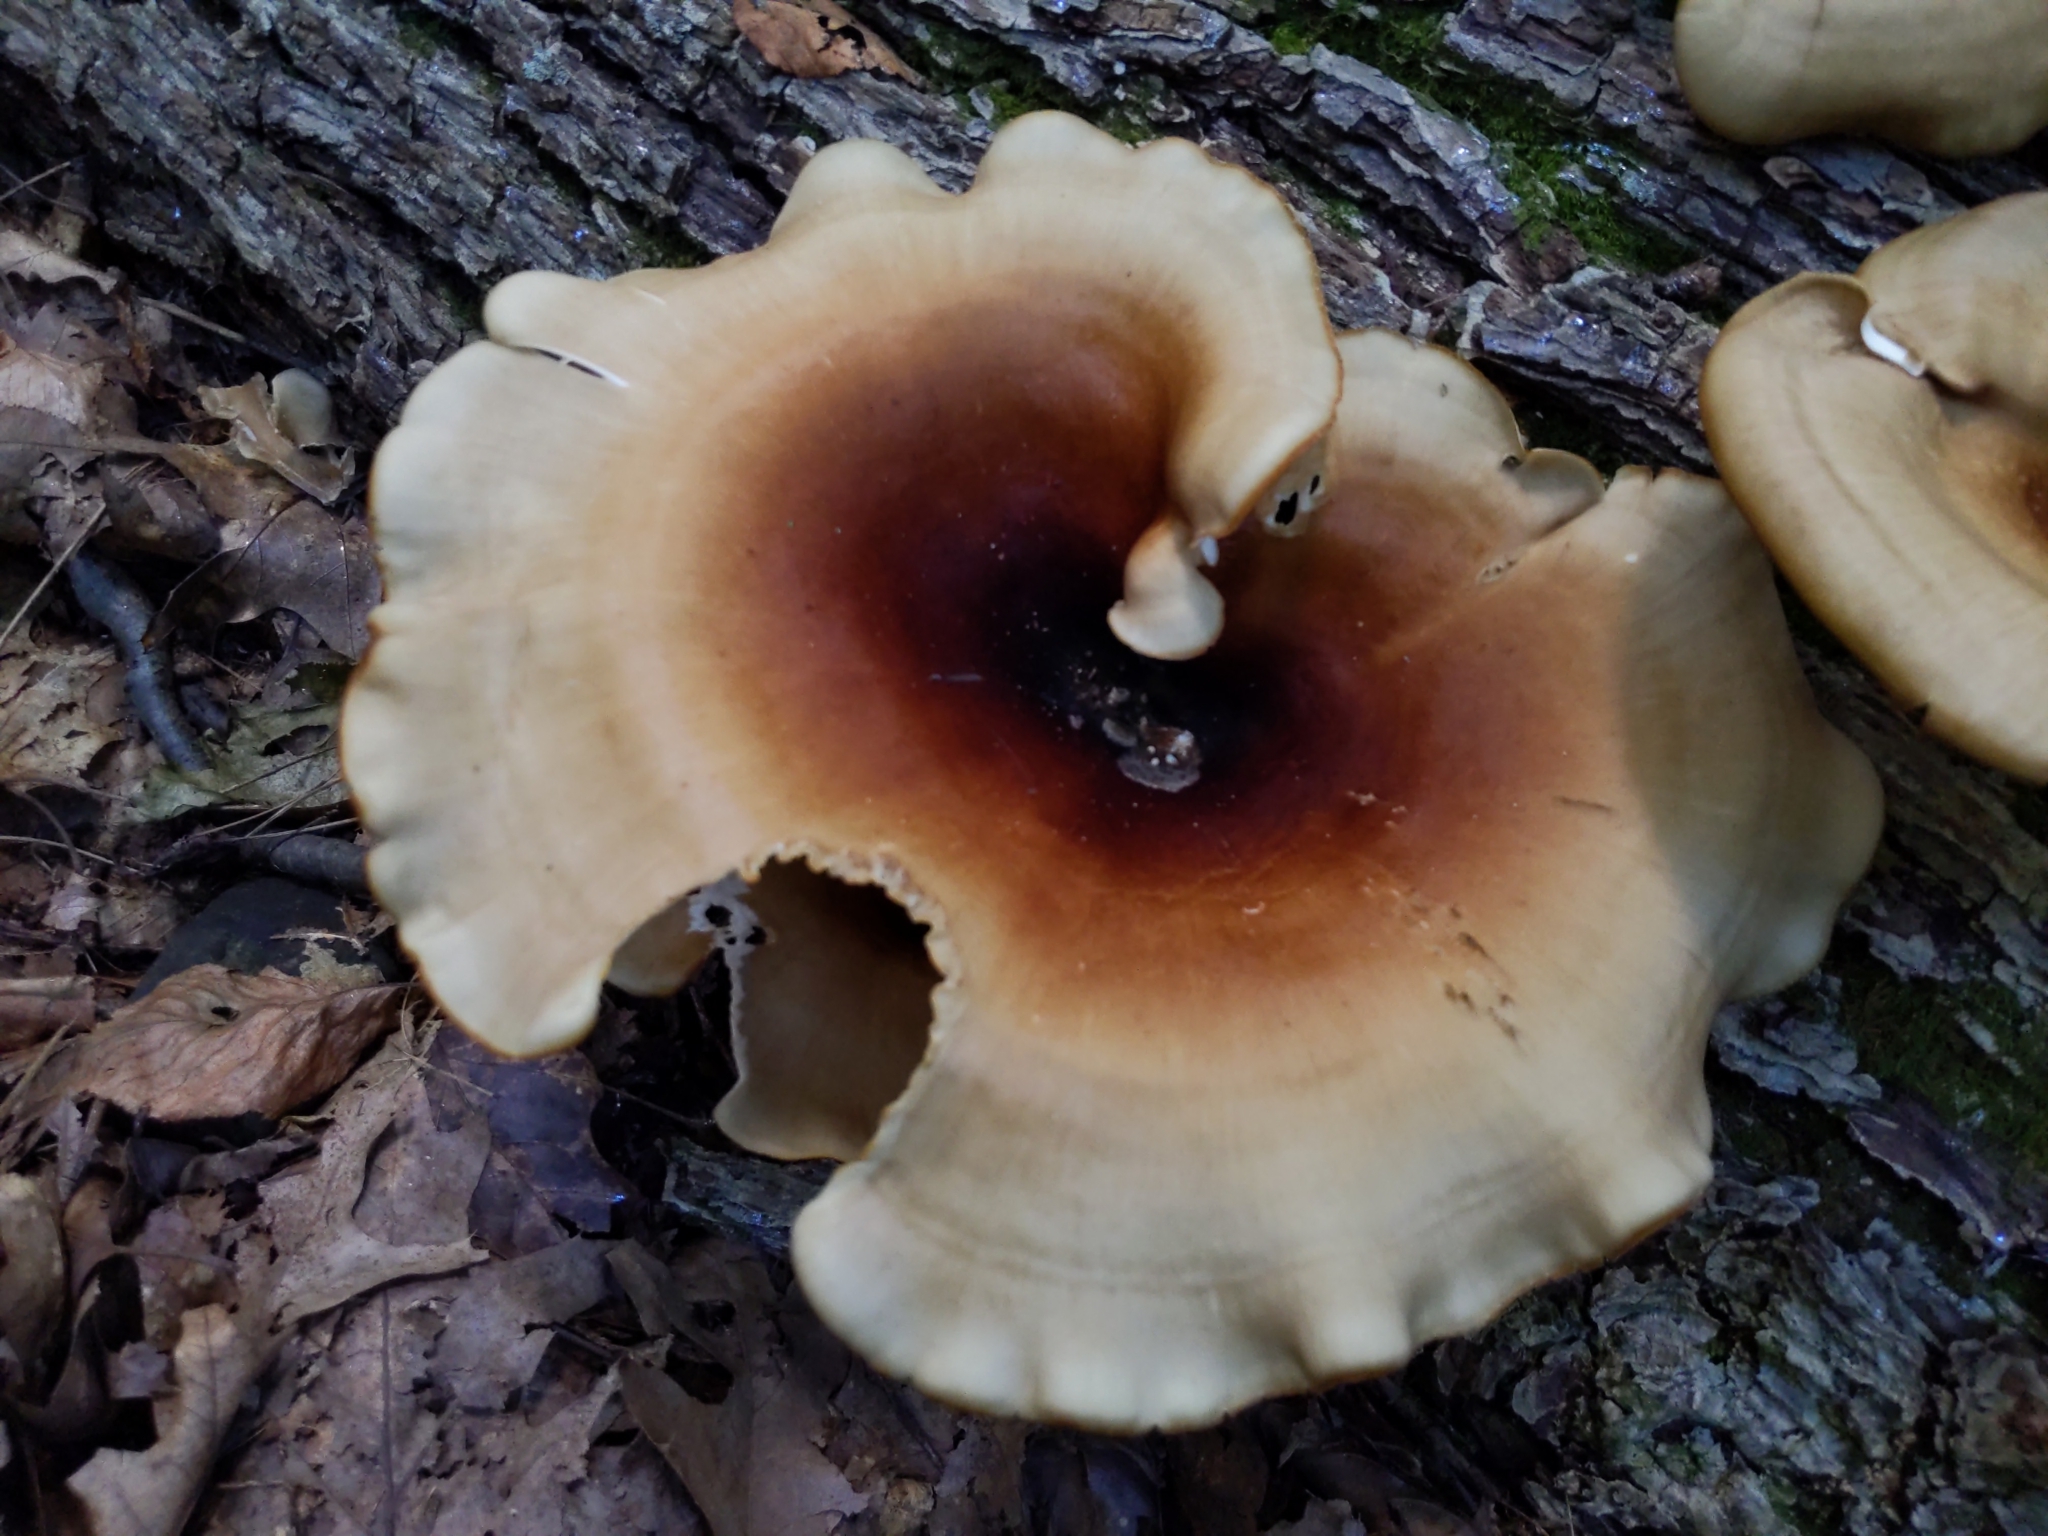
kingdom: Fungi
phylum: Basidiomycota
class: Agaricomycetes
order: Polyporales
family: Polyporaceae
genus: Picipes
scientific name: Picipes badius
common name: Bay polypore
